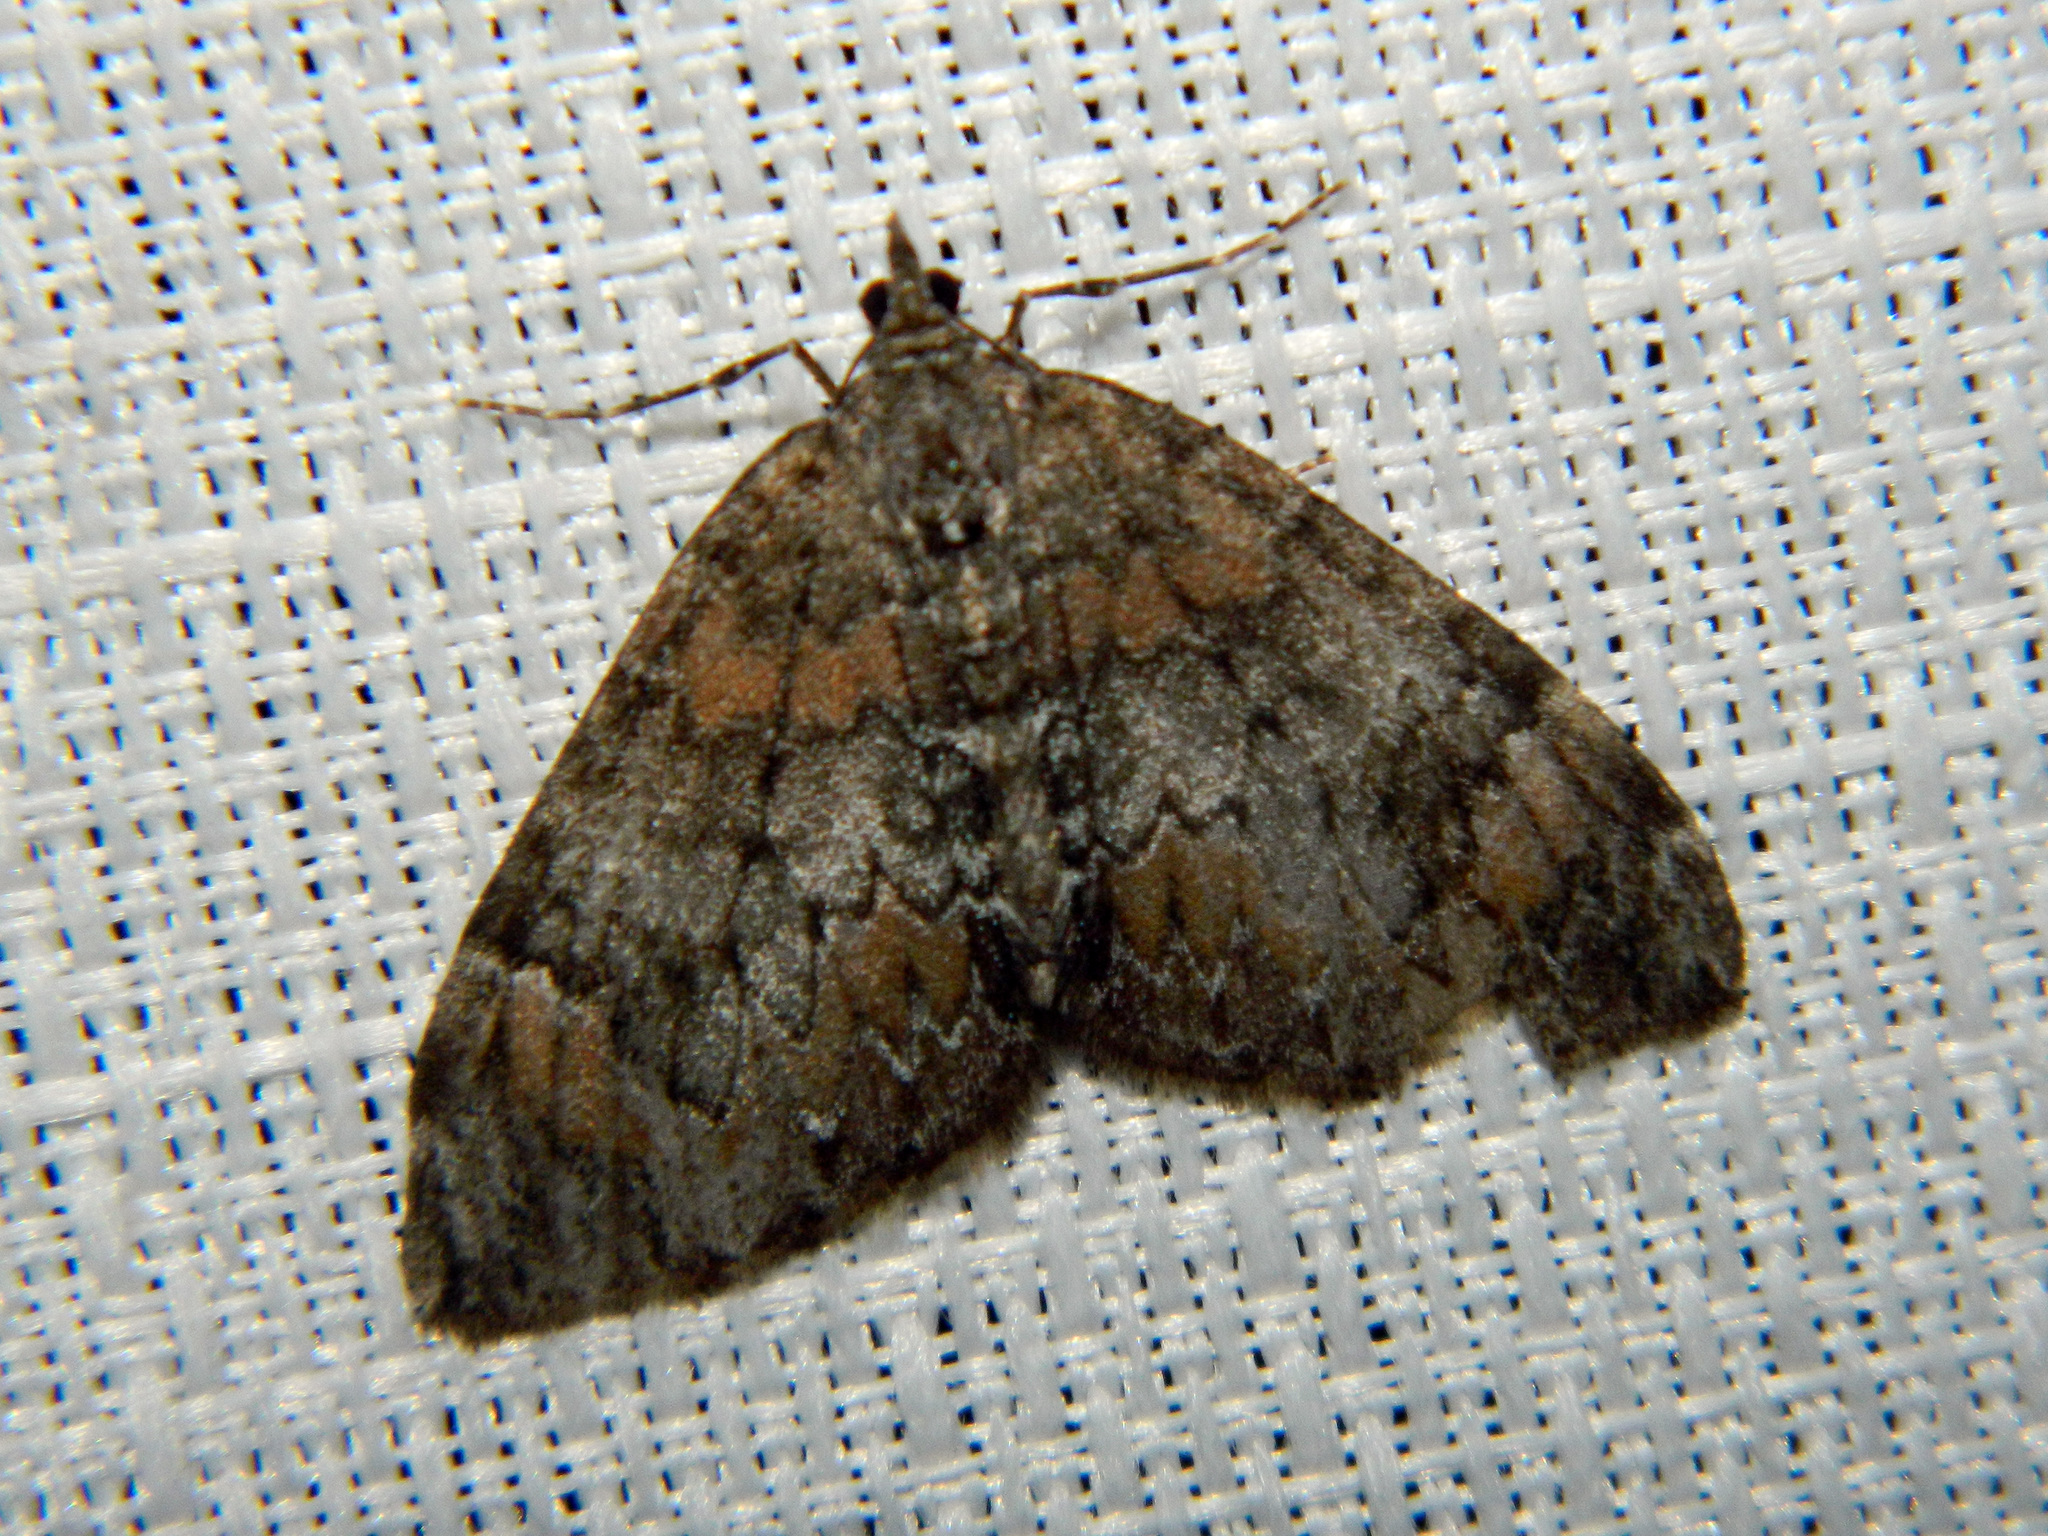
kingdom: Animalia
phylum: Arthropoda
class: Insecta
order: Lepidoptera
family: Geometridae
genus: Dysstroma
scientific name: Dysstroma citrata
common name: Dark marbled carpet
